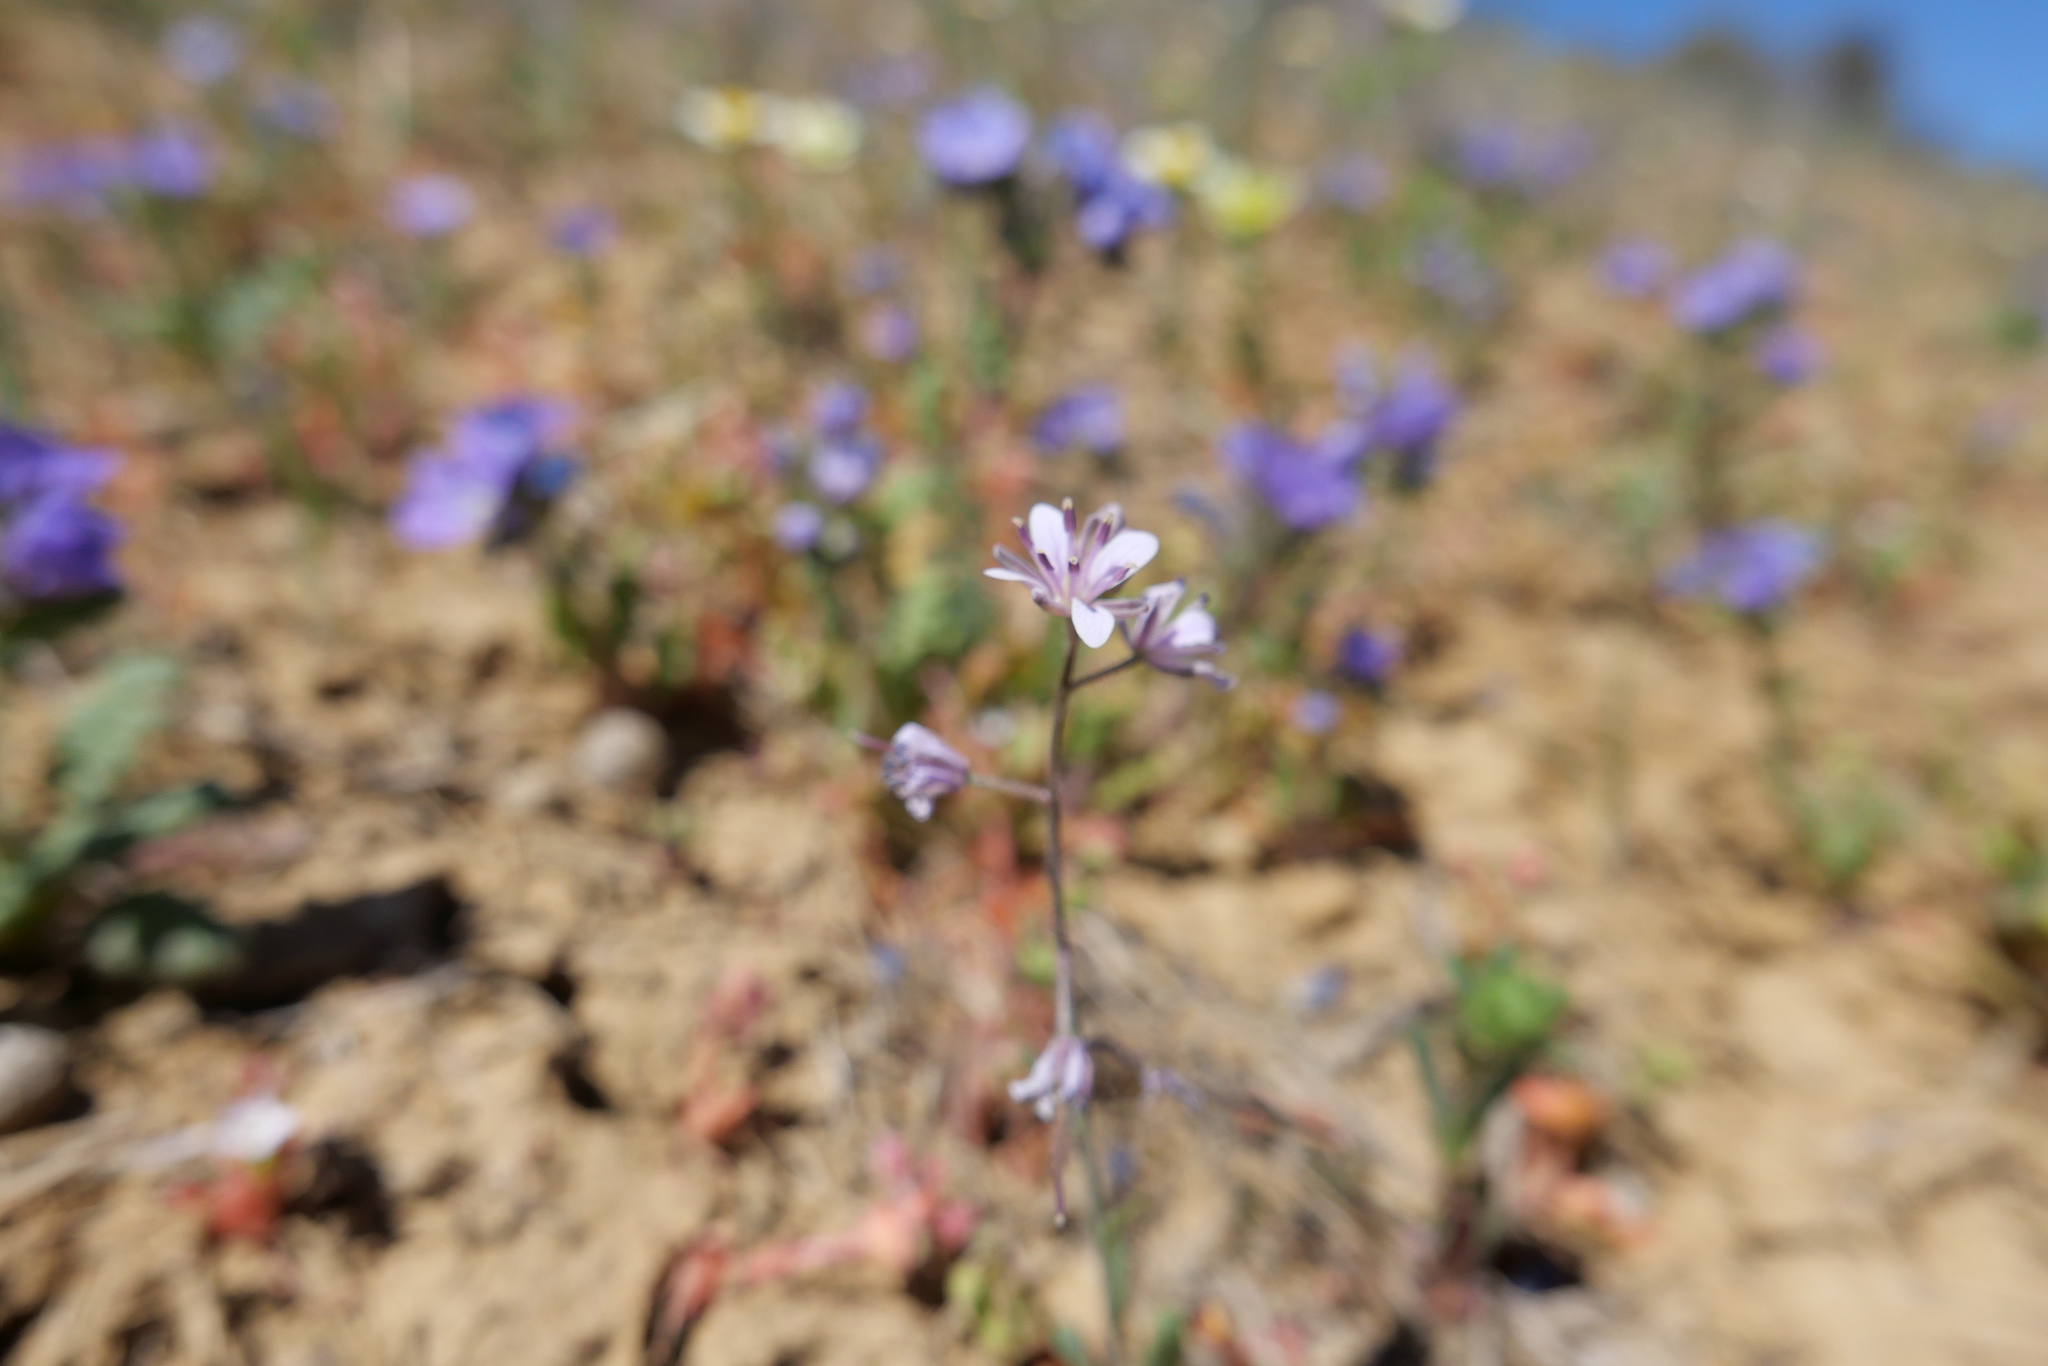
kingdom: Plantae
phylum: Tracheophyta
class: Magnoliopsida
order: Brassicales
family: Brassicaceae
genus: Streptanthus
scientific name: Streptanthus anceps
